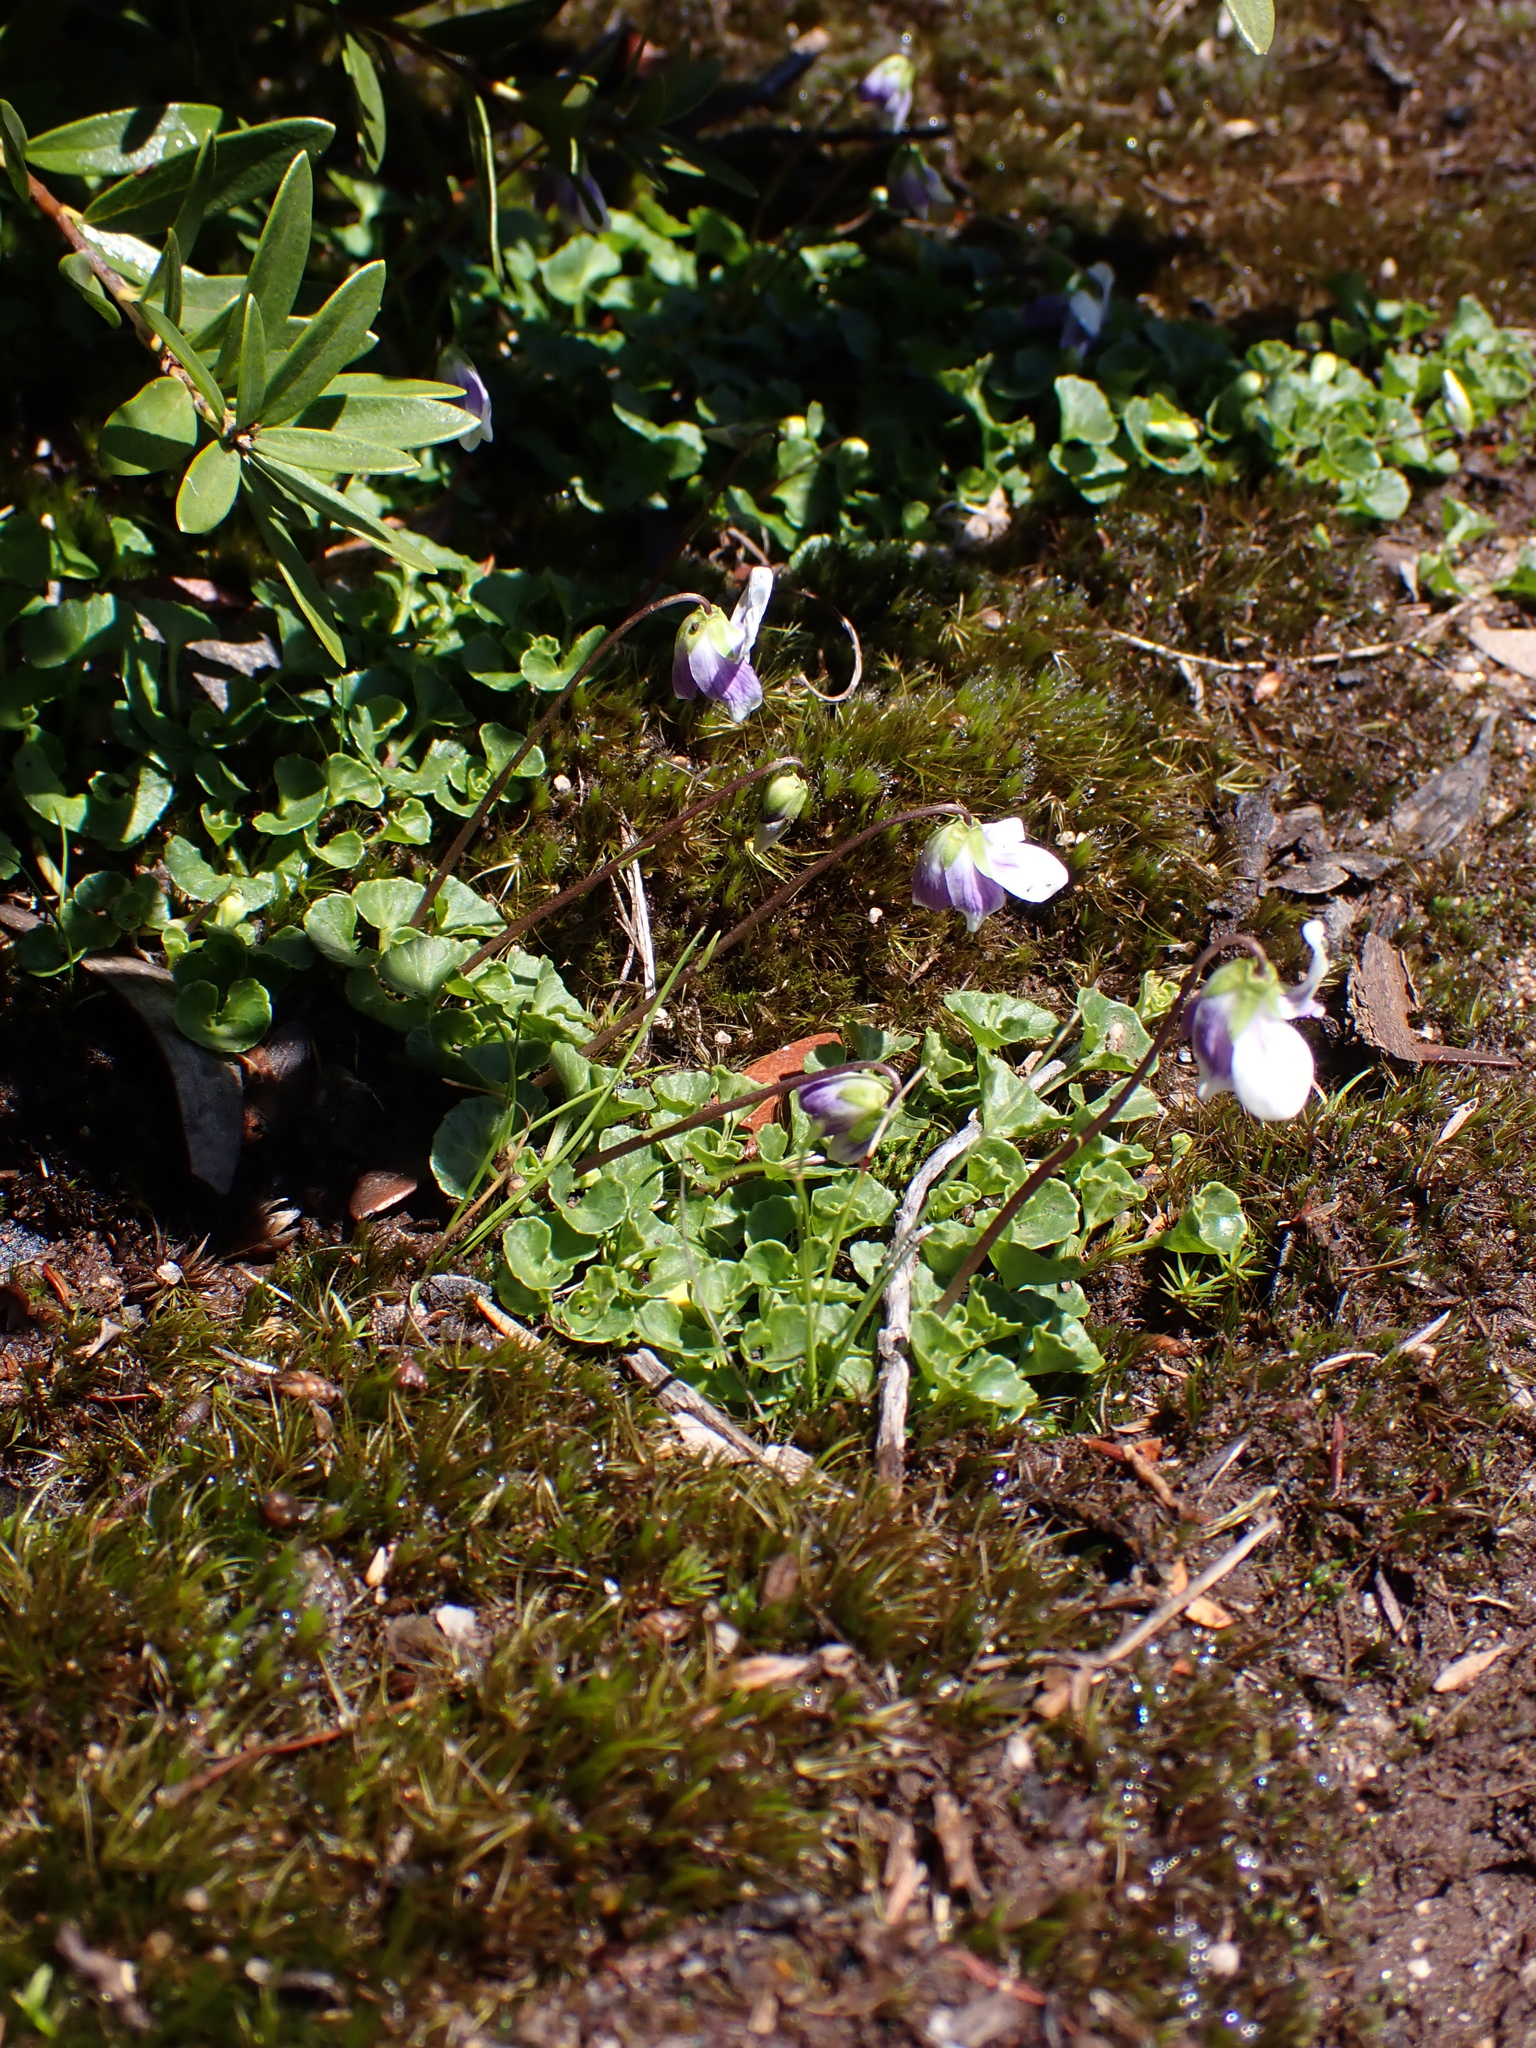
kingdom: Plantae
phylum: Tracheophyta
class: Magnoliopsida
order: Malpighiales
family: Violaceae
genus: Viola
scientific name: Viola eminens
